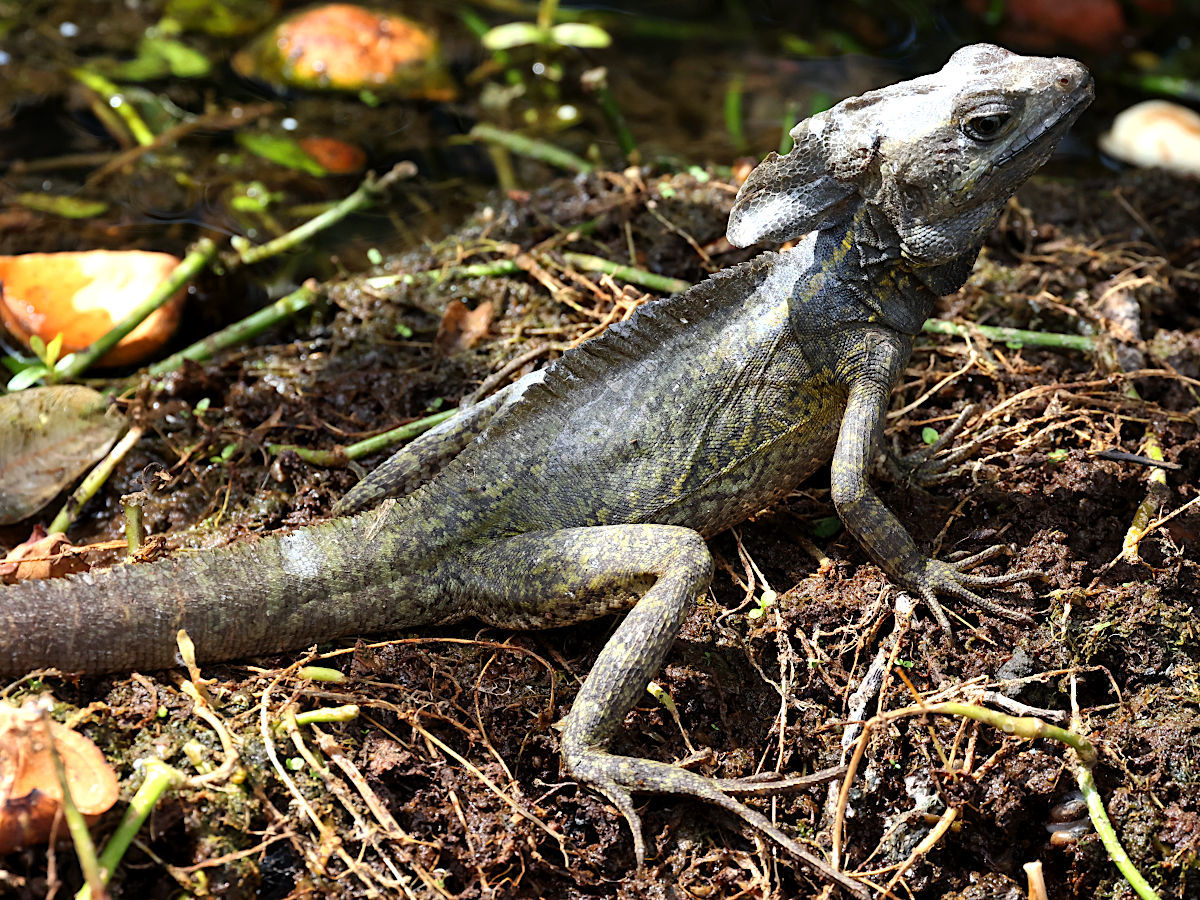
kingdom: Animalia
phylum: Chordata
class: Squamata
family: Corytophanidae
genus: Basiliscus
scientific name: Basiliscus vittatus
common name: Brown basilisk
